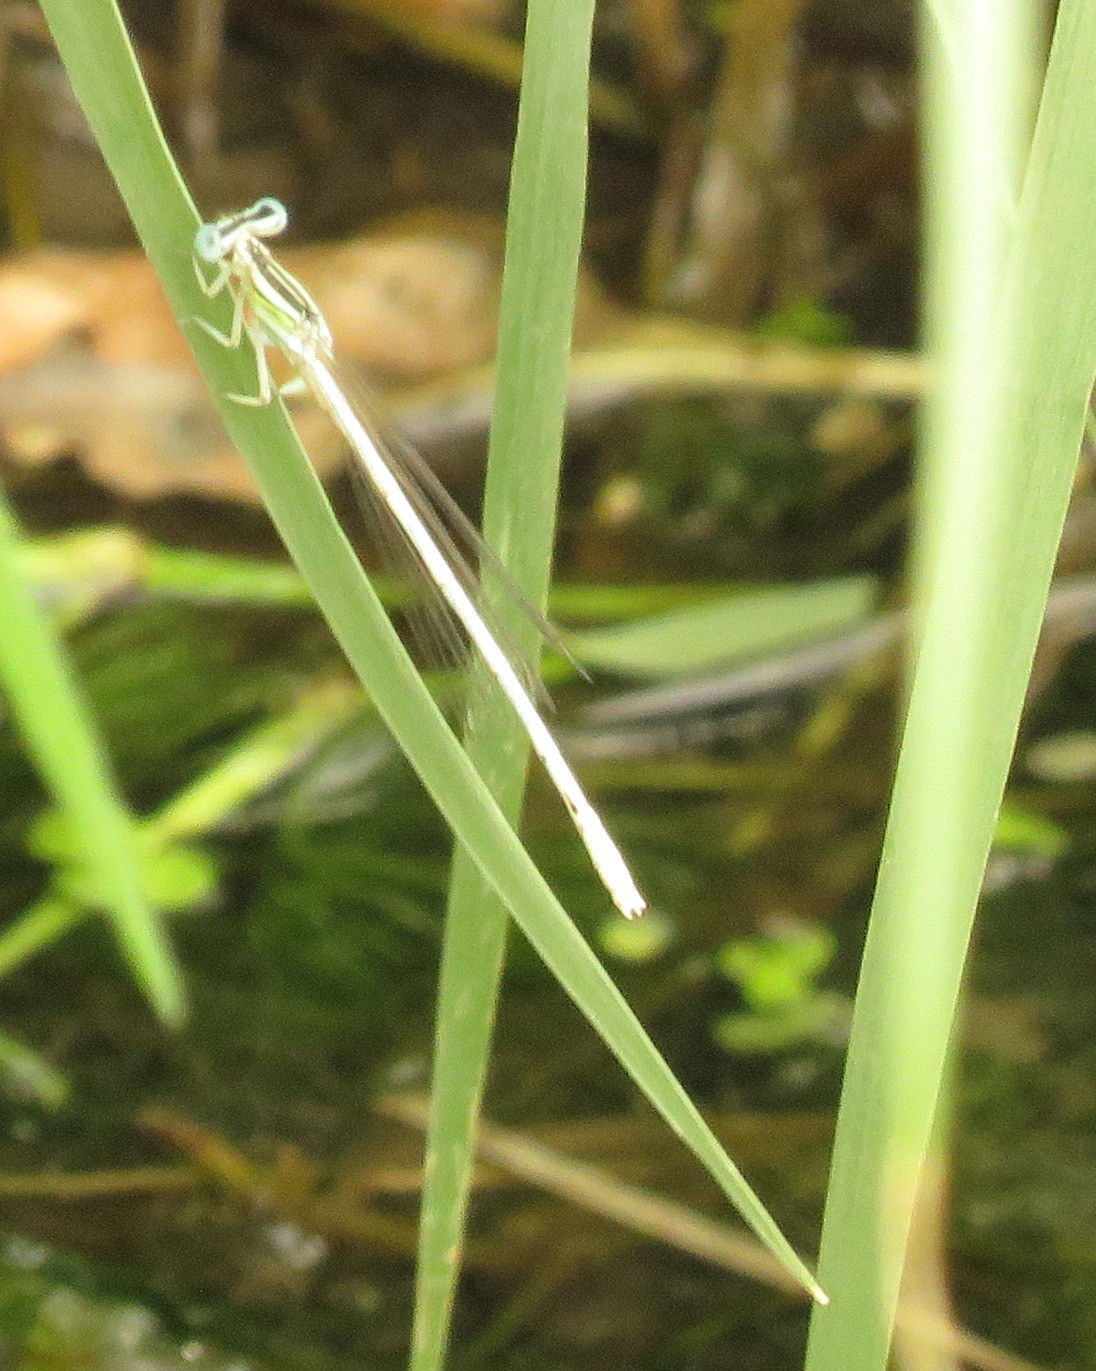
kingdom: Animalia
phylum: Arthropoda
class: Insecta
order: Odonata
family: Platycnemididae
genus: Platycnemis
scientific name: Platycnemis dealbata
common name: Ivory featherleg
